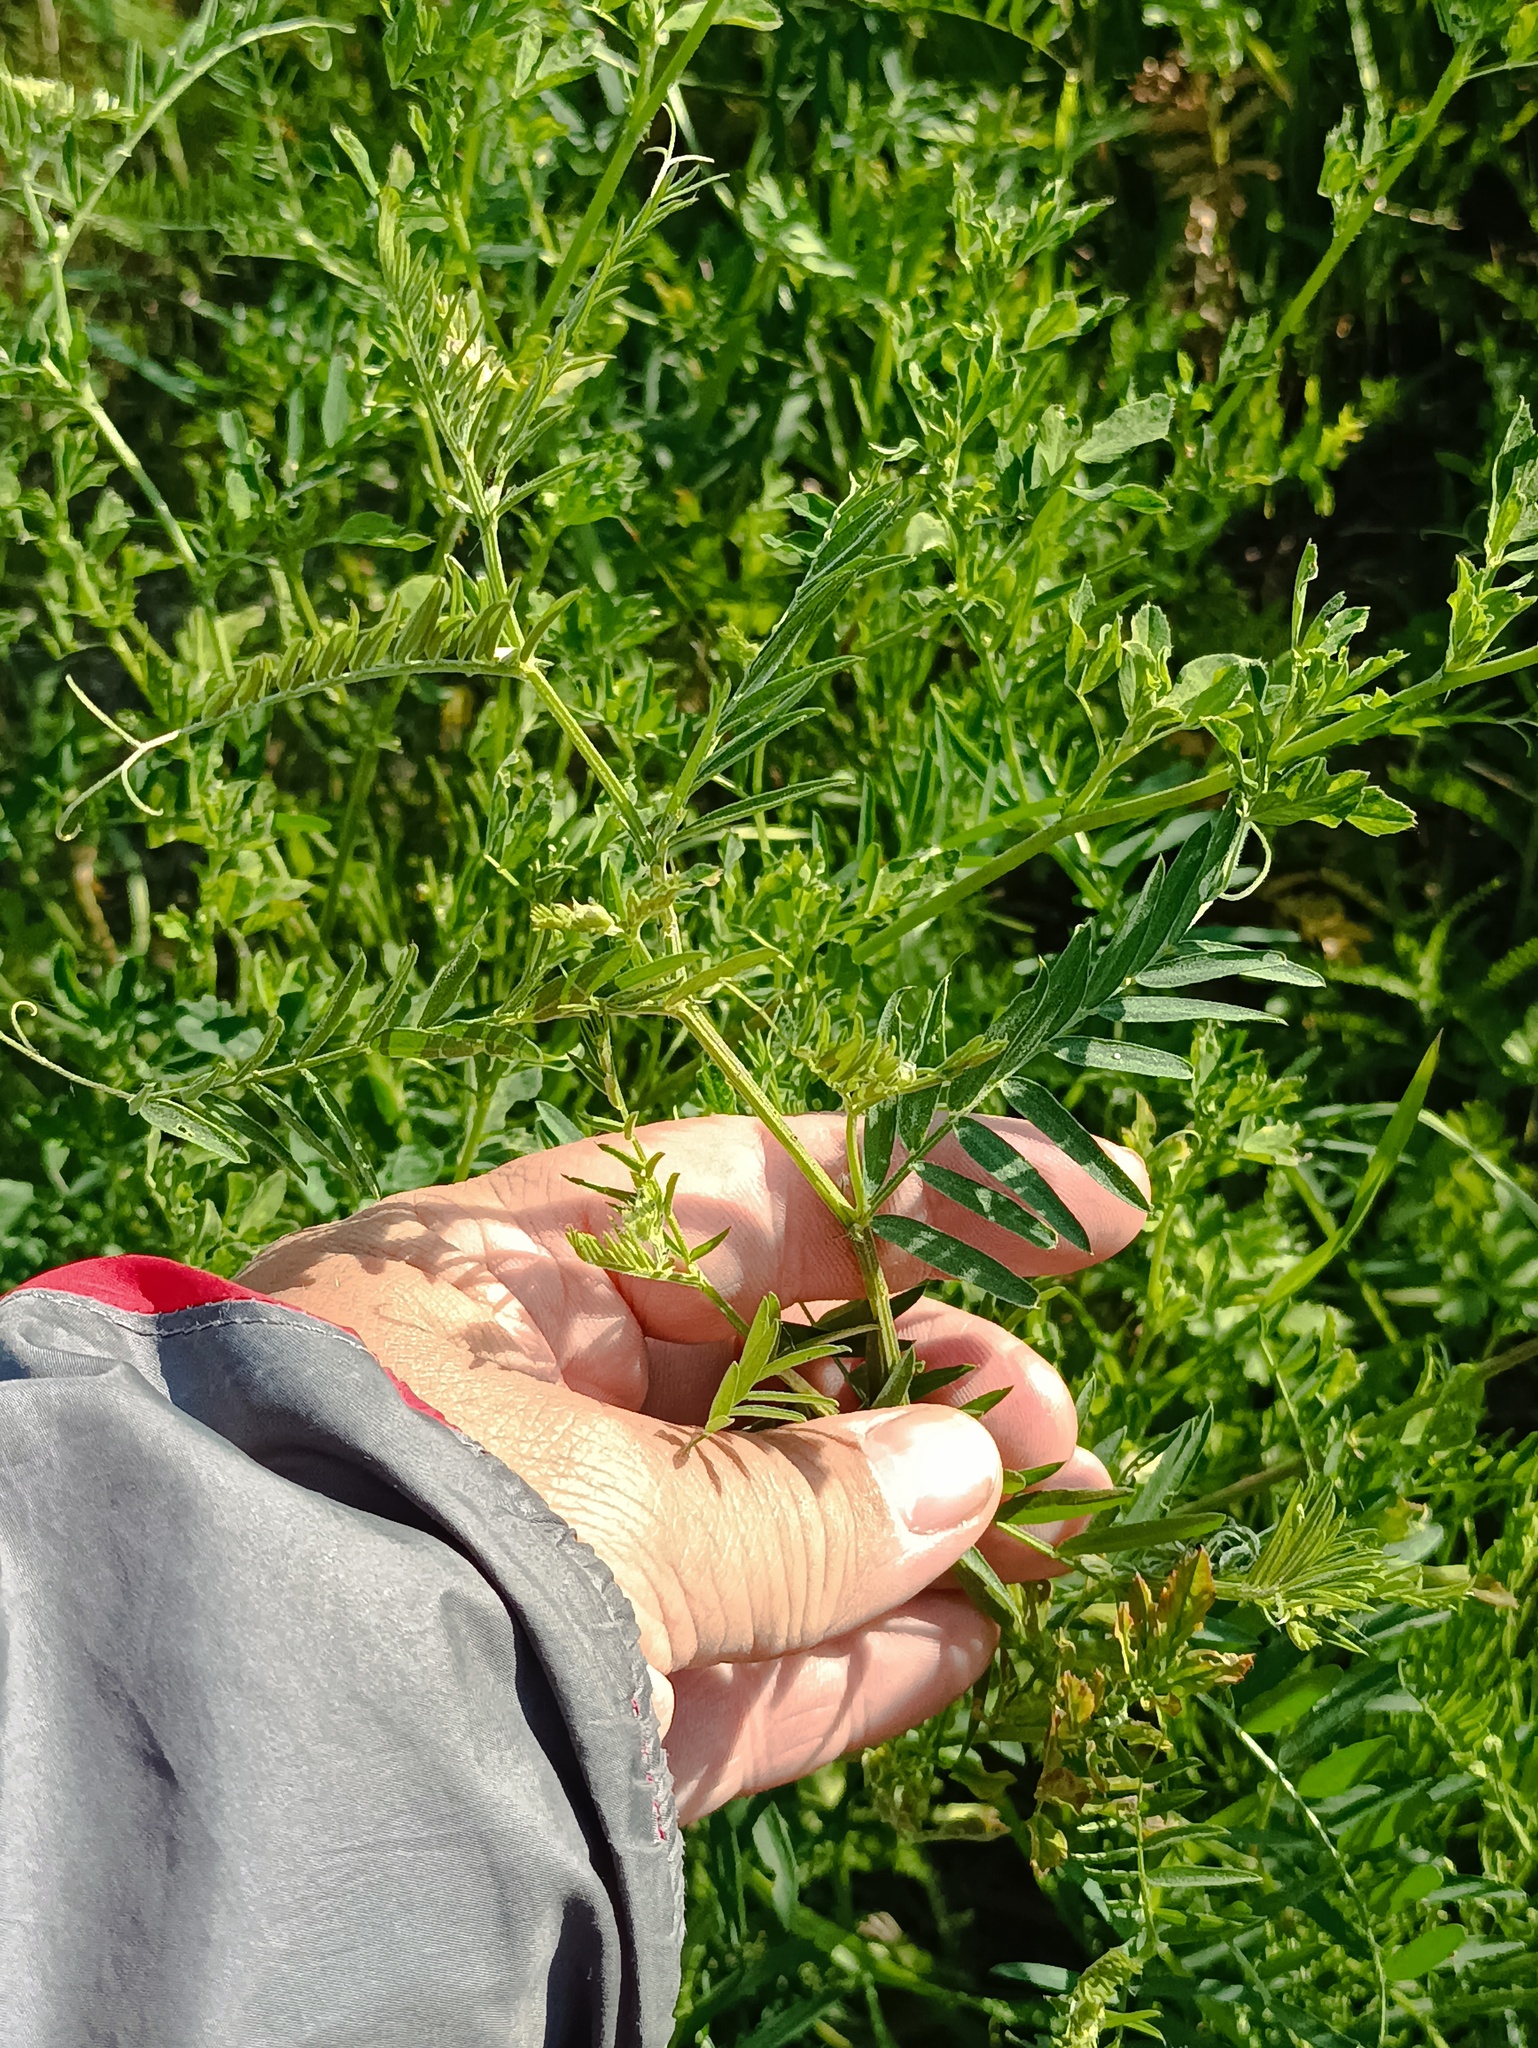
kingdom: Plantae
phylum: Tracheophyta
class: Magnoliopsida
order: Fabales
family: Fabaceae
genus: Vicia
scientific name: Vicia cracca
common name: Bird vetch
